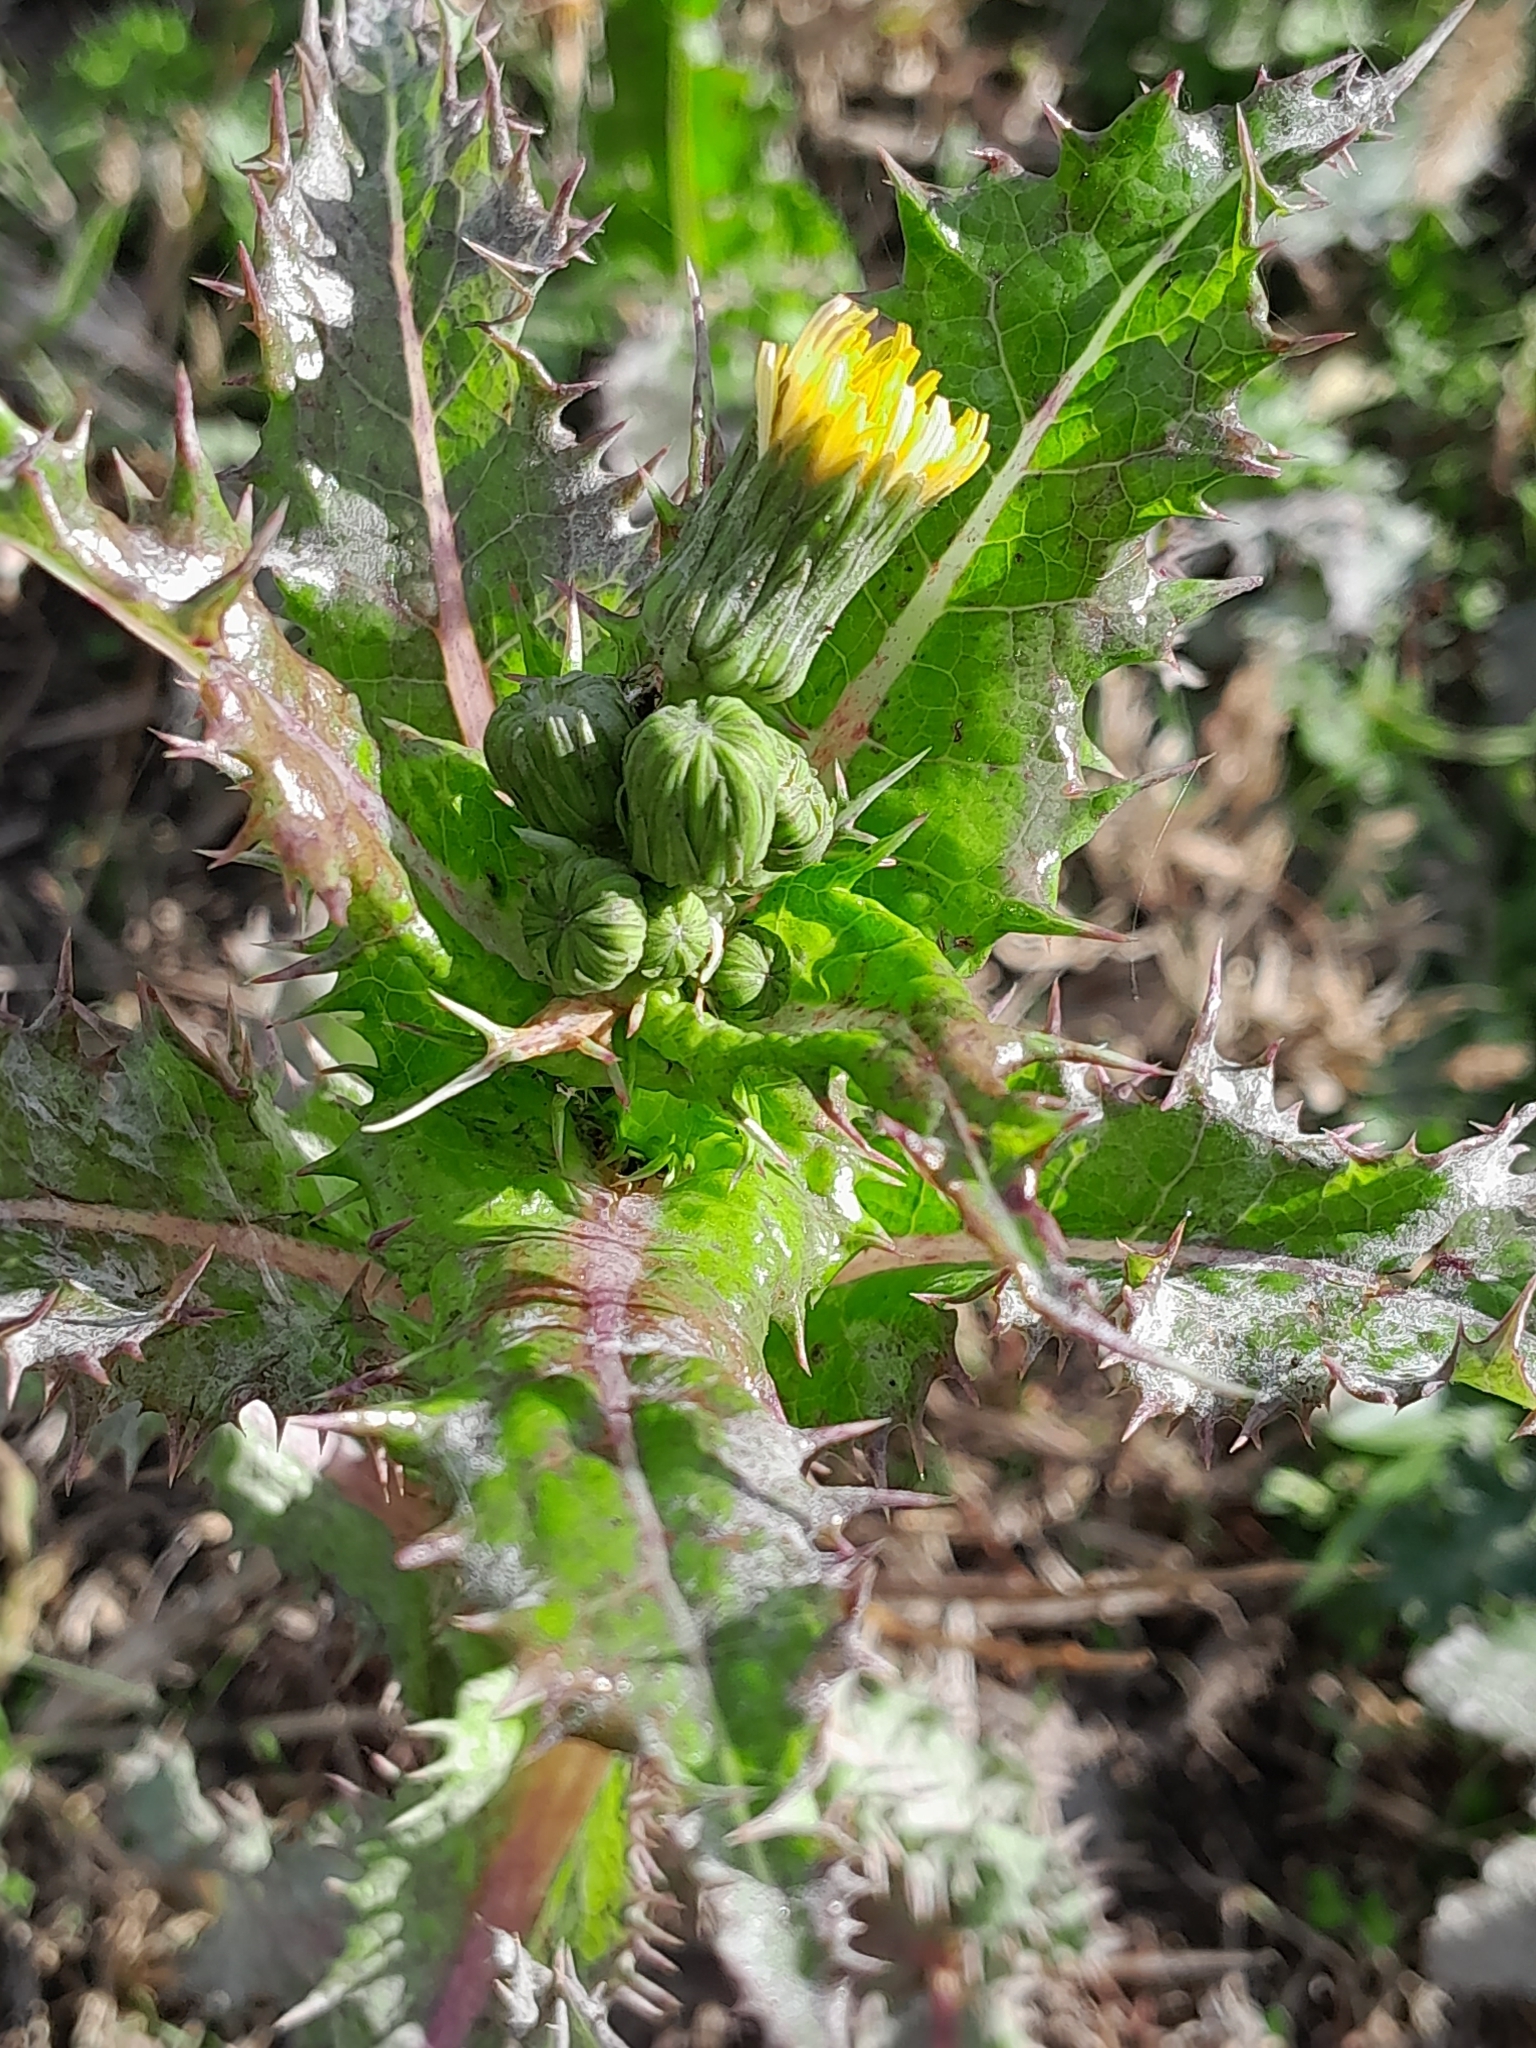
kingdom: Plantae
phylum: Tracheophyta
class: Magnoliopsida
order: Asterales
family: Asteraceae
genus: Sonchus
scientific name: Sonchus asper
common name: Prickly sow-thistle
